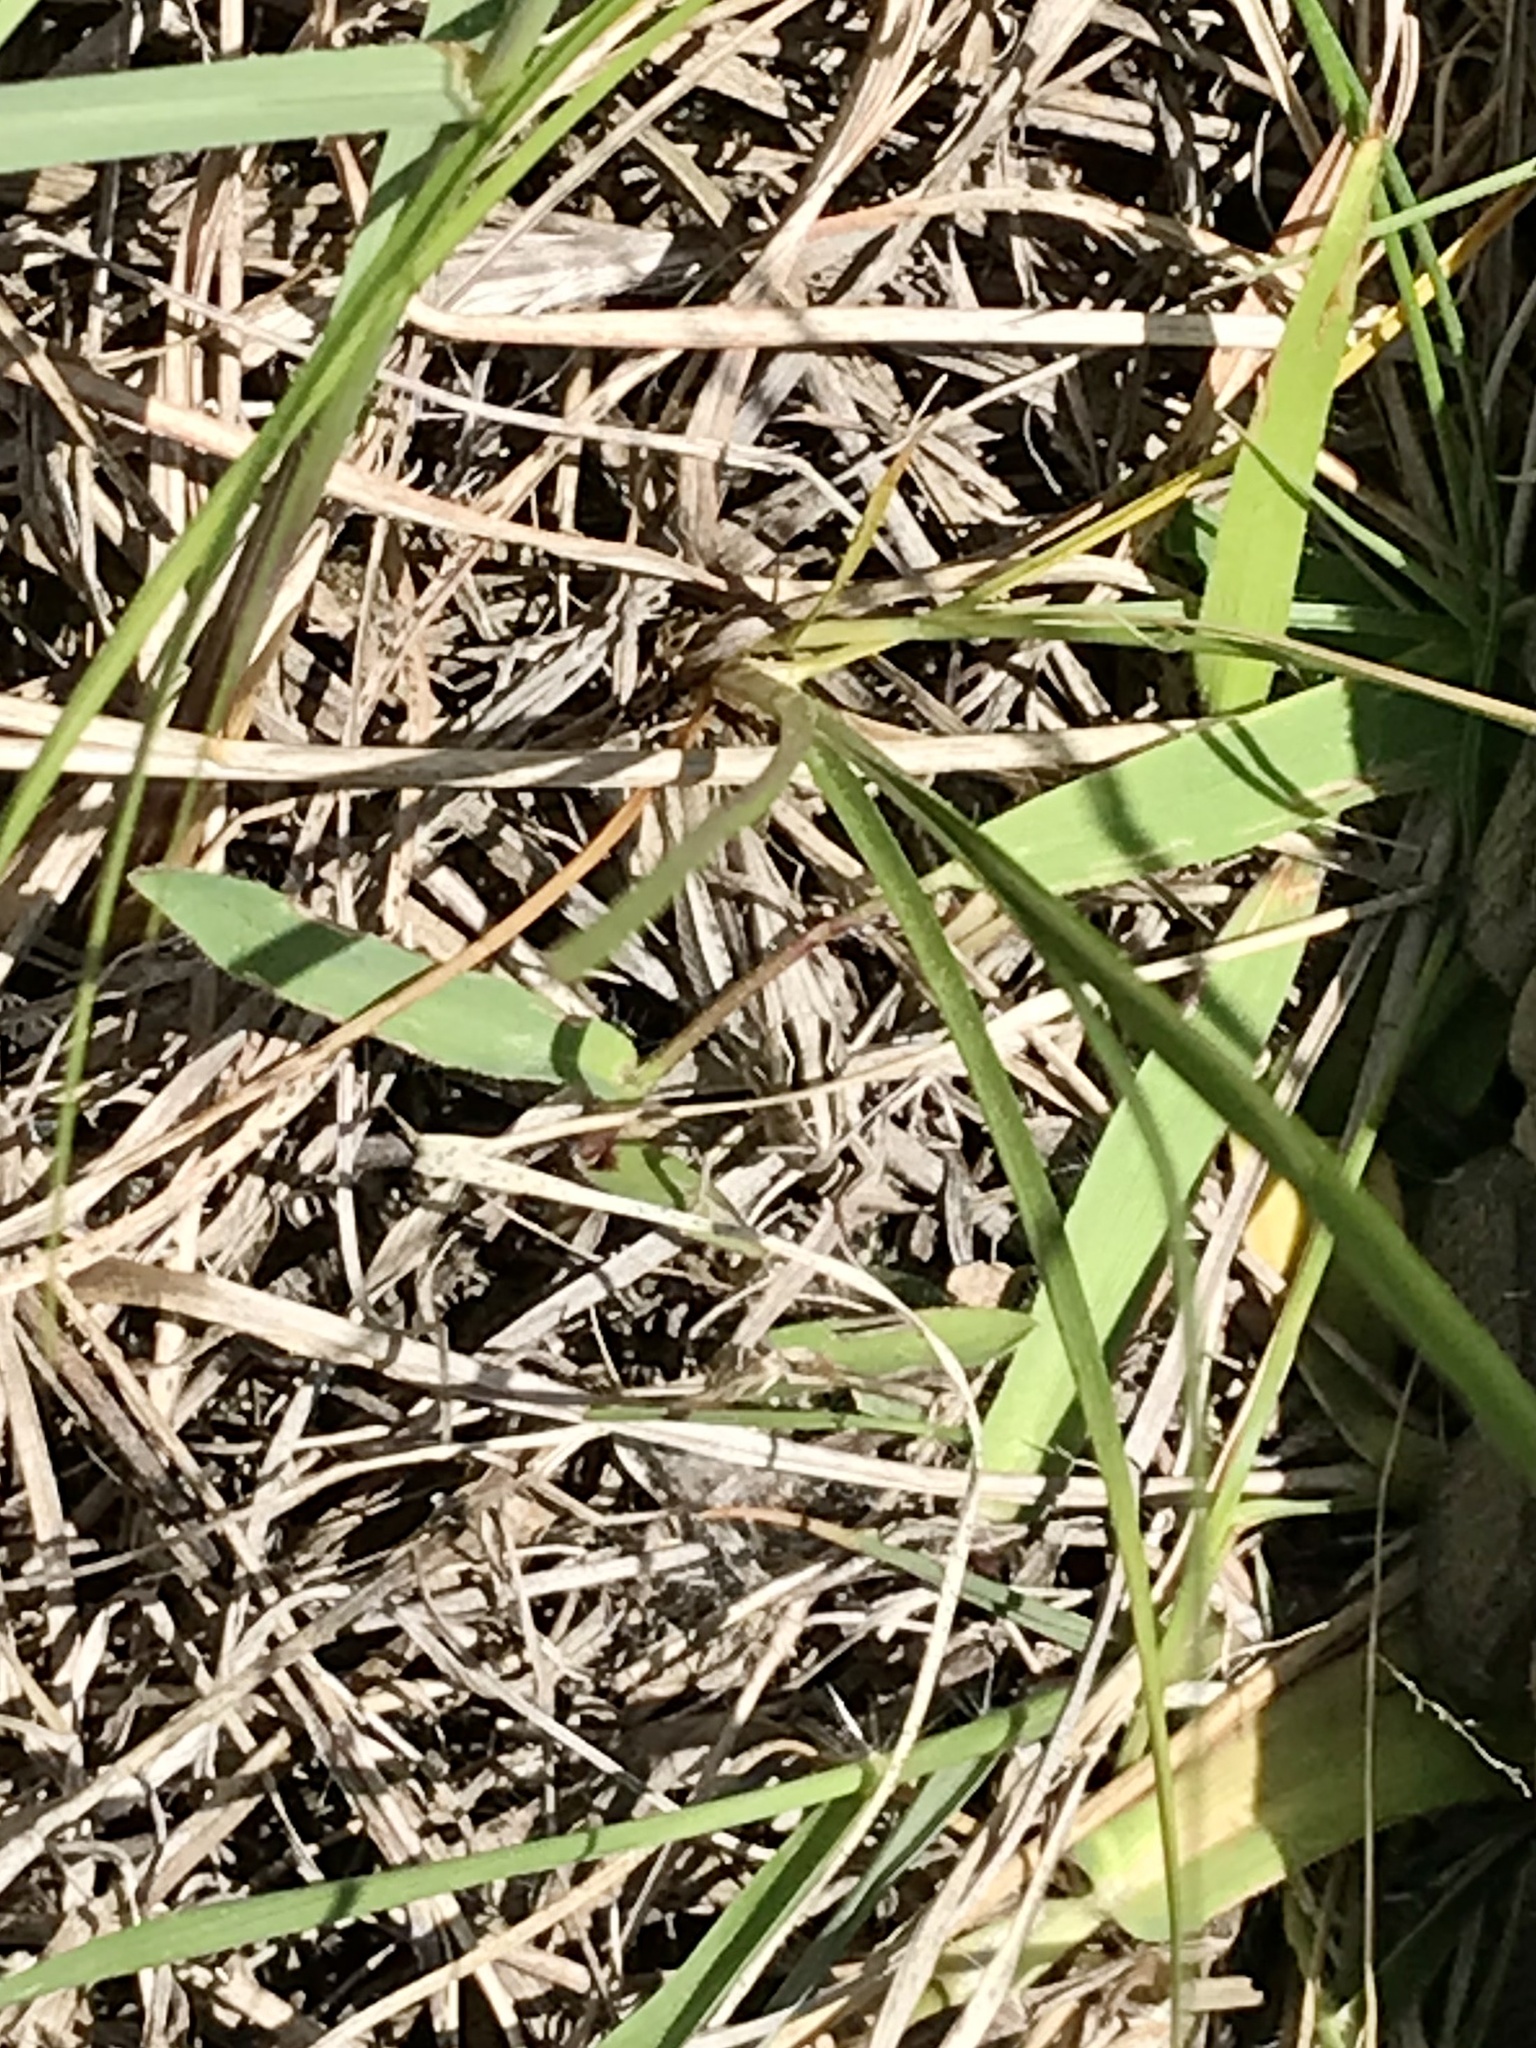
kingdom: Animalia
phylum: Arthropoda
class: Insecta
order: Orthoptera
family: Acrididae
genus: Eritettix
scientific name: Eritettix simplex
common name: Velvet-striped grasshopper
